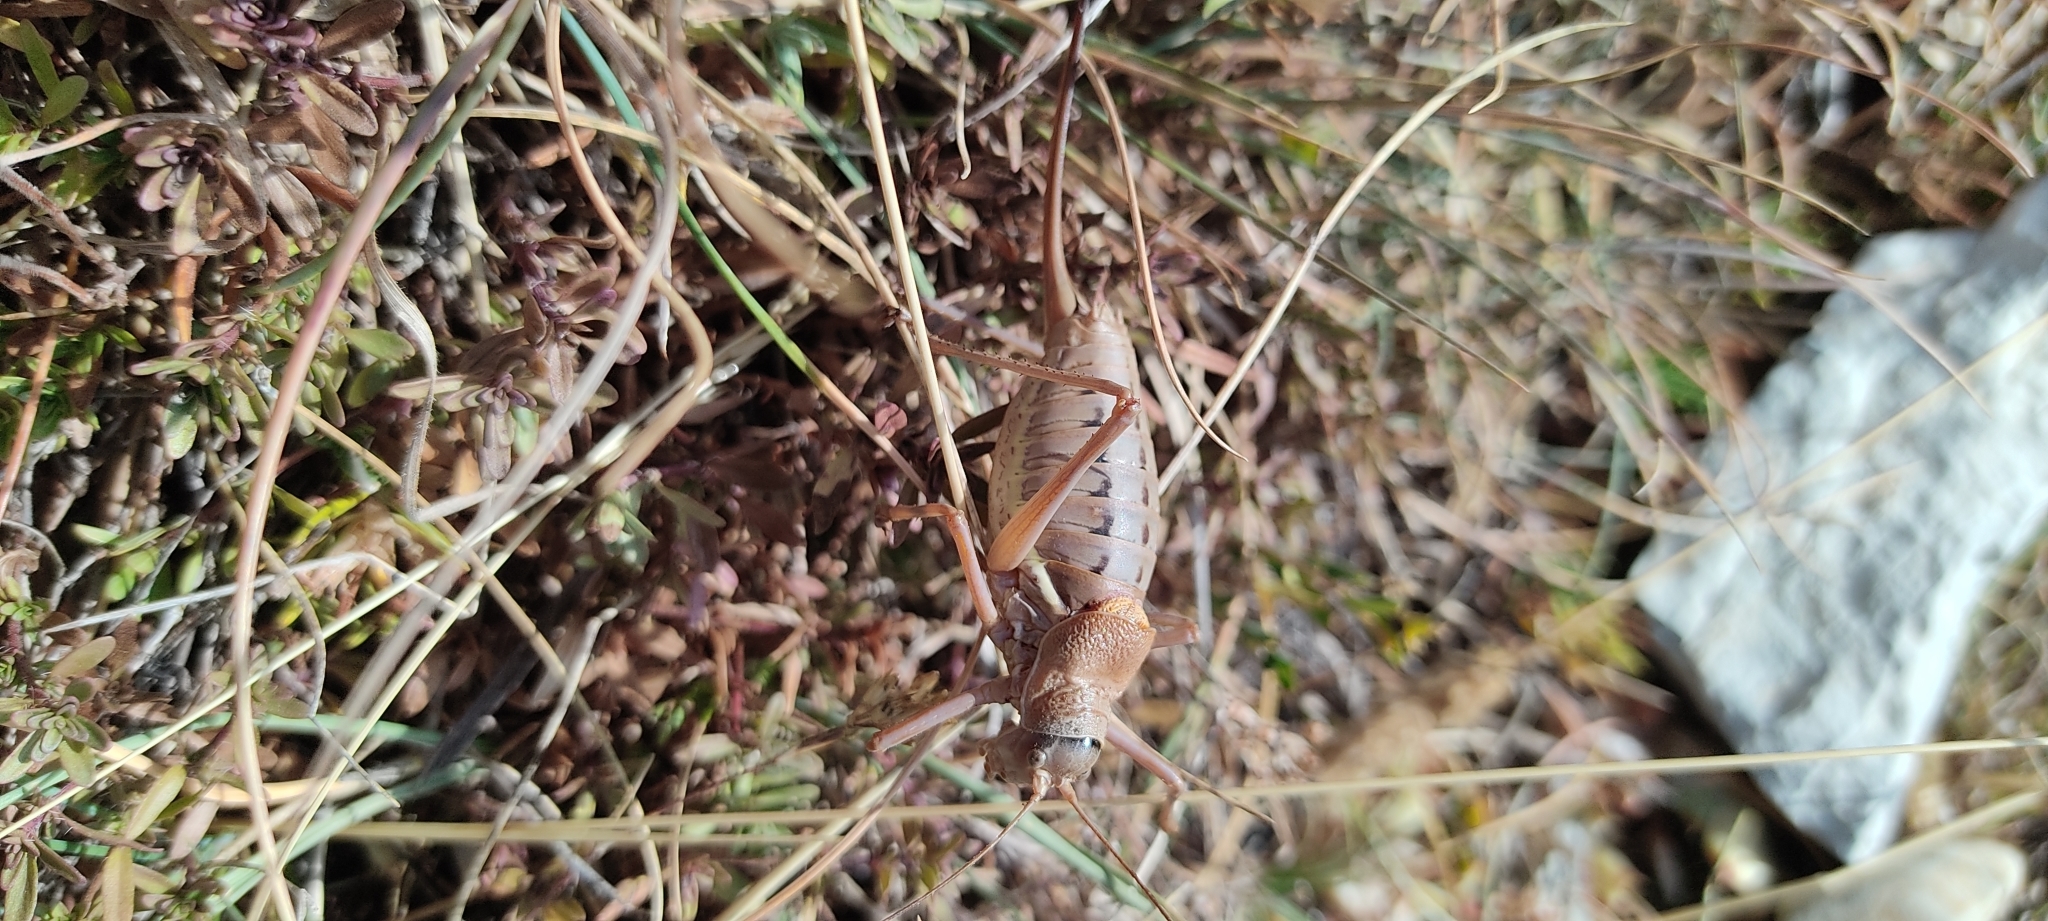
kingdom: Animalia
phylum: Arthropoda
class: Insecta
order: Orthoptera
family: Tettigoniidae
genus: Ephippiger
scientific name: Ephippiger terrestris
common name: Alpine saddle-backed bush-cricket
